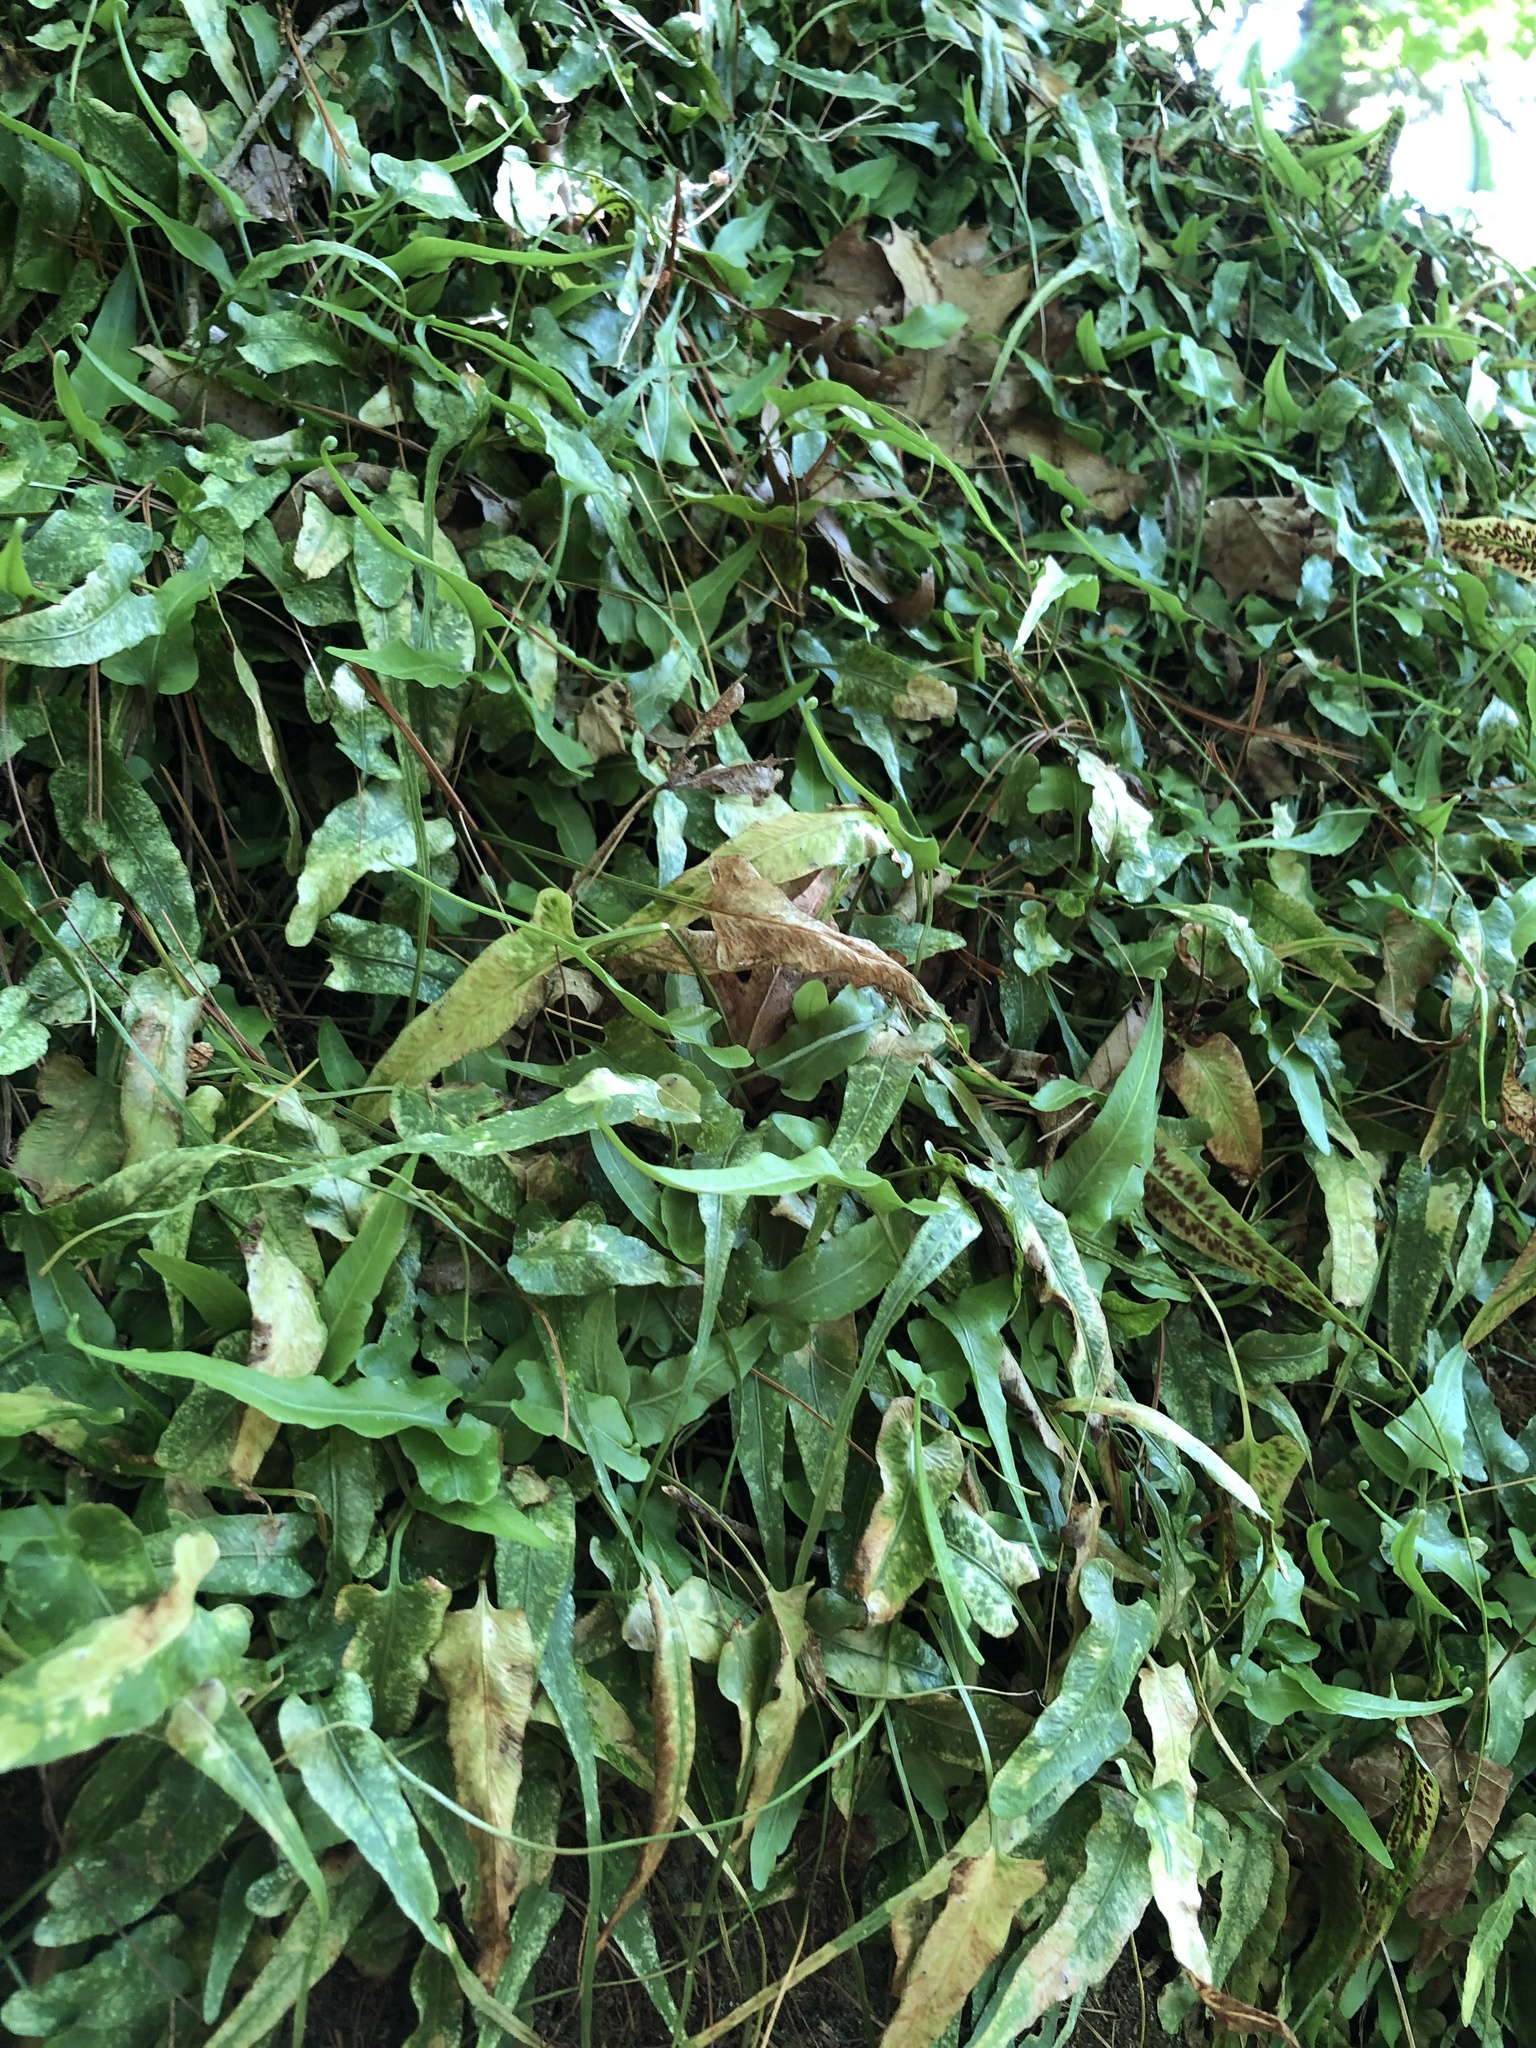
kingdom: Plantae
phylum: Tracheophyta
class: Polypodiopsida
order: Polypodiales
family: Aspleniaceae
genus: Asplenium
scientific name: Asplenium rhizophyllum
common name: Walking fern
